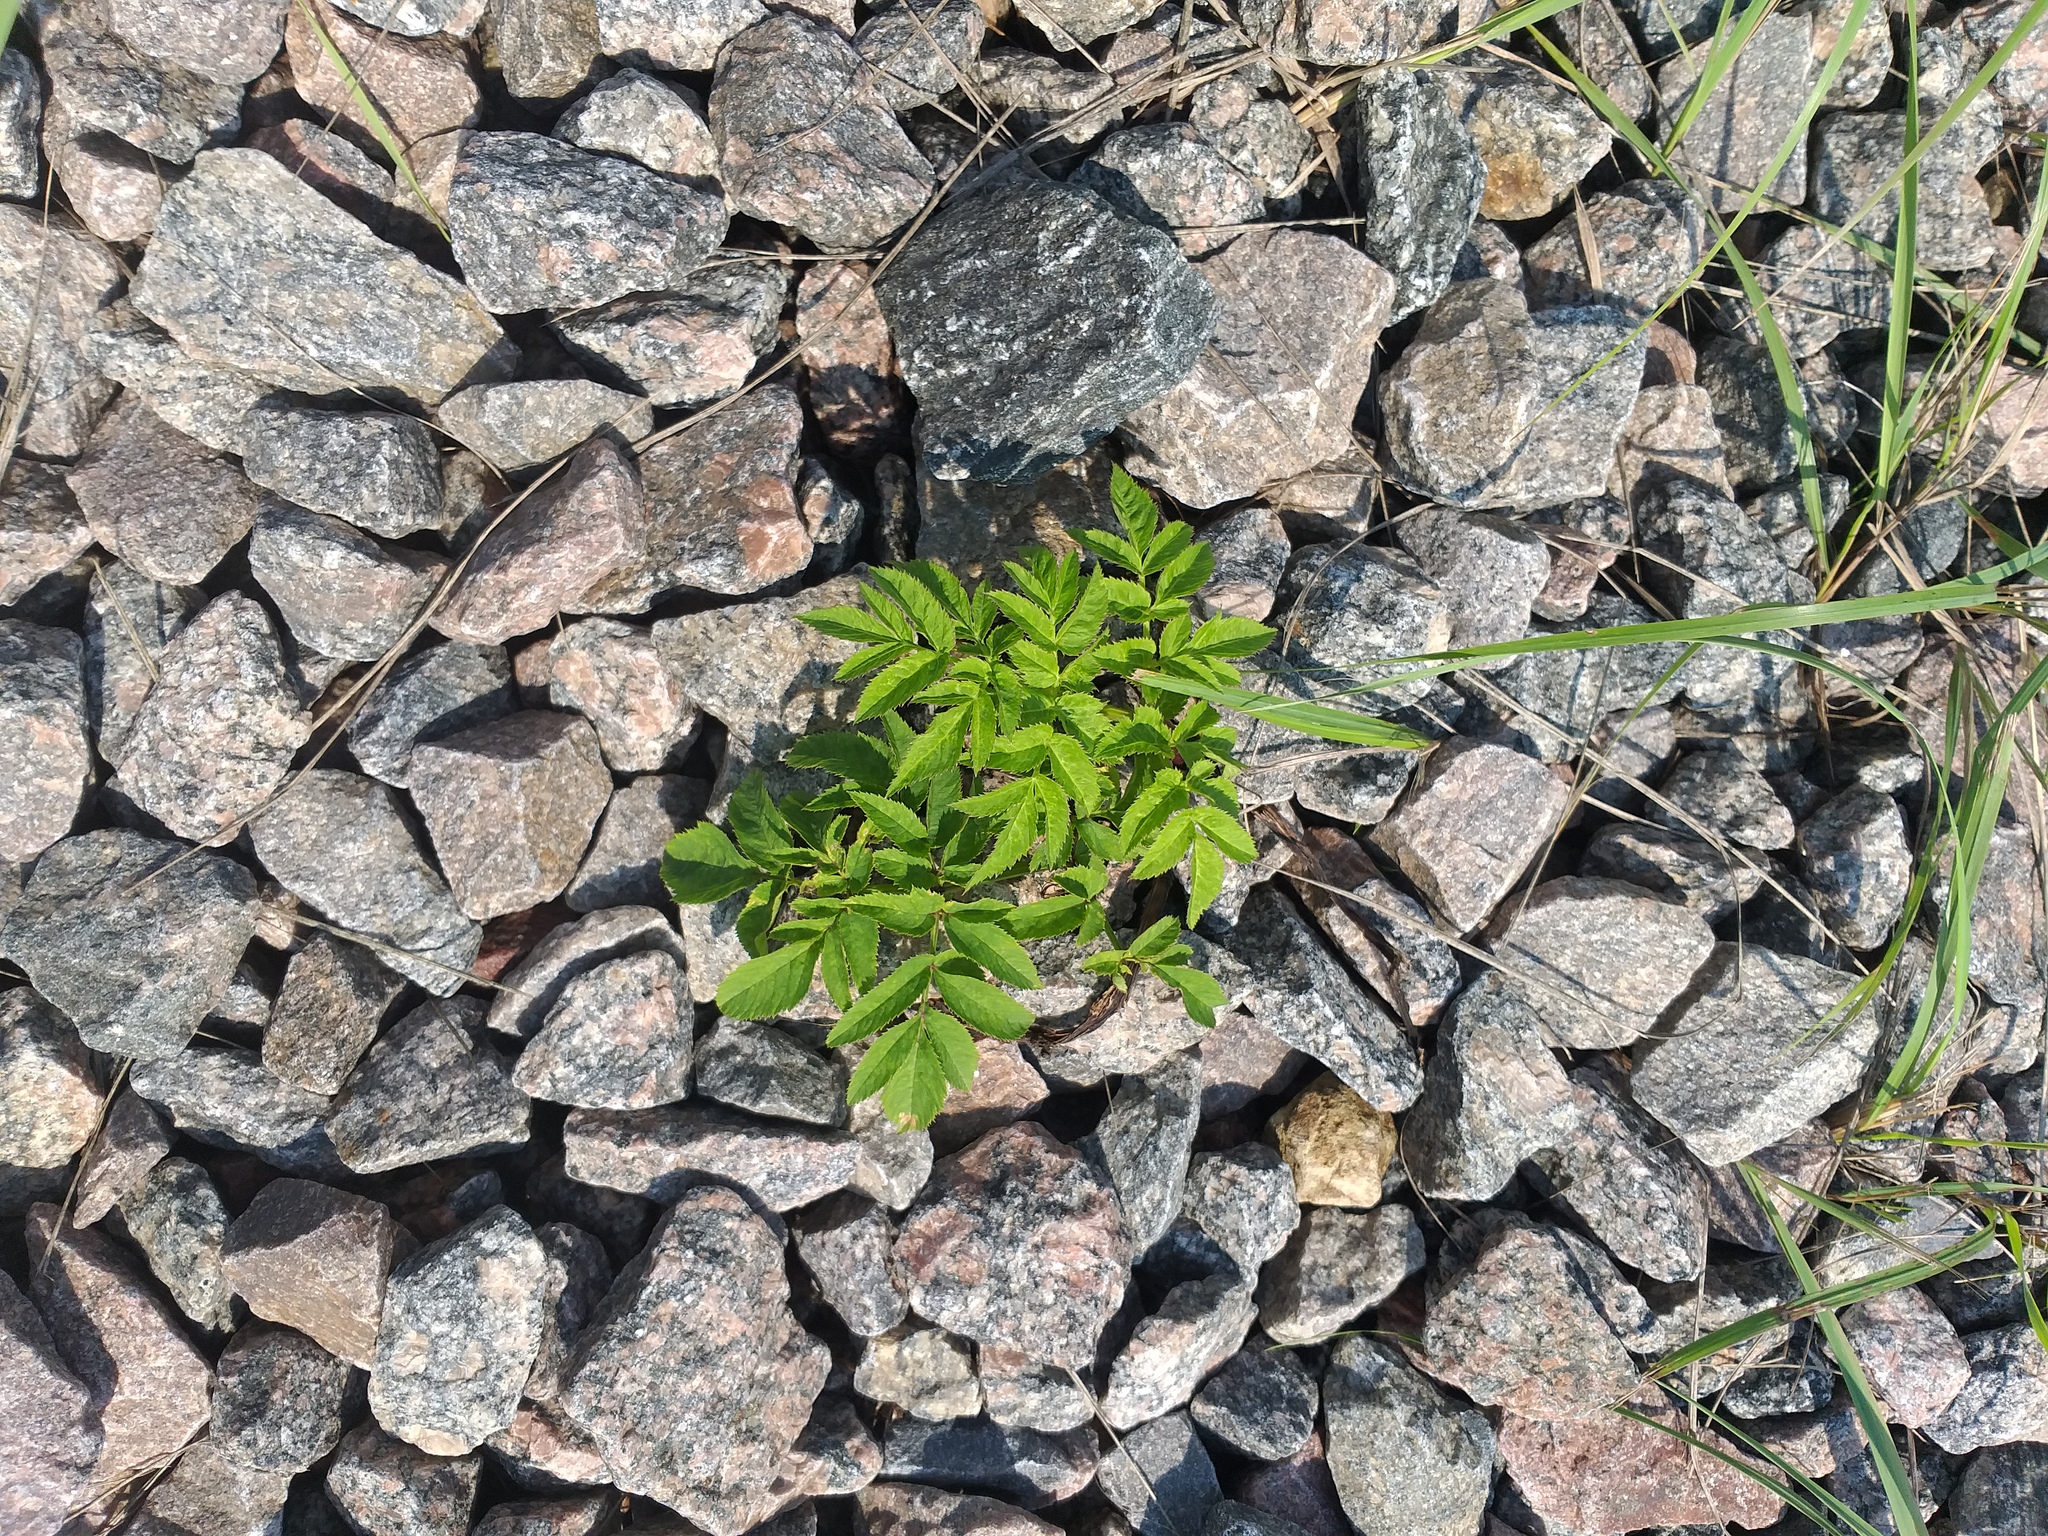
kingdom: Plantae
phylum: Tracheophyta
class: Magnoliopsida
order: Apiales
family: Apiaceae
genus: Angelica
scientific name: Angelica sylvestris
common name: Wild angelica
